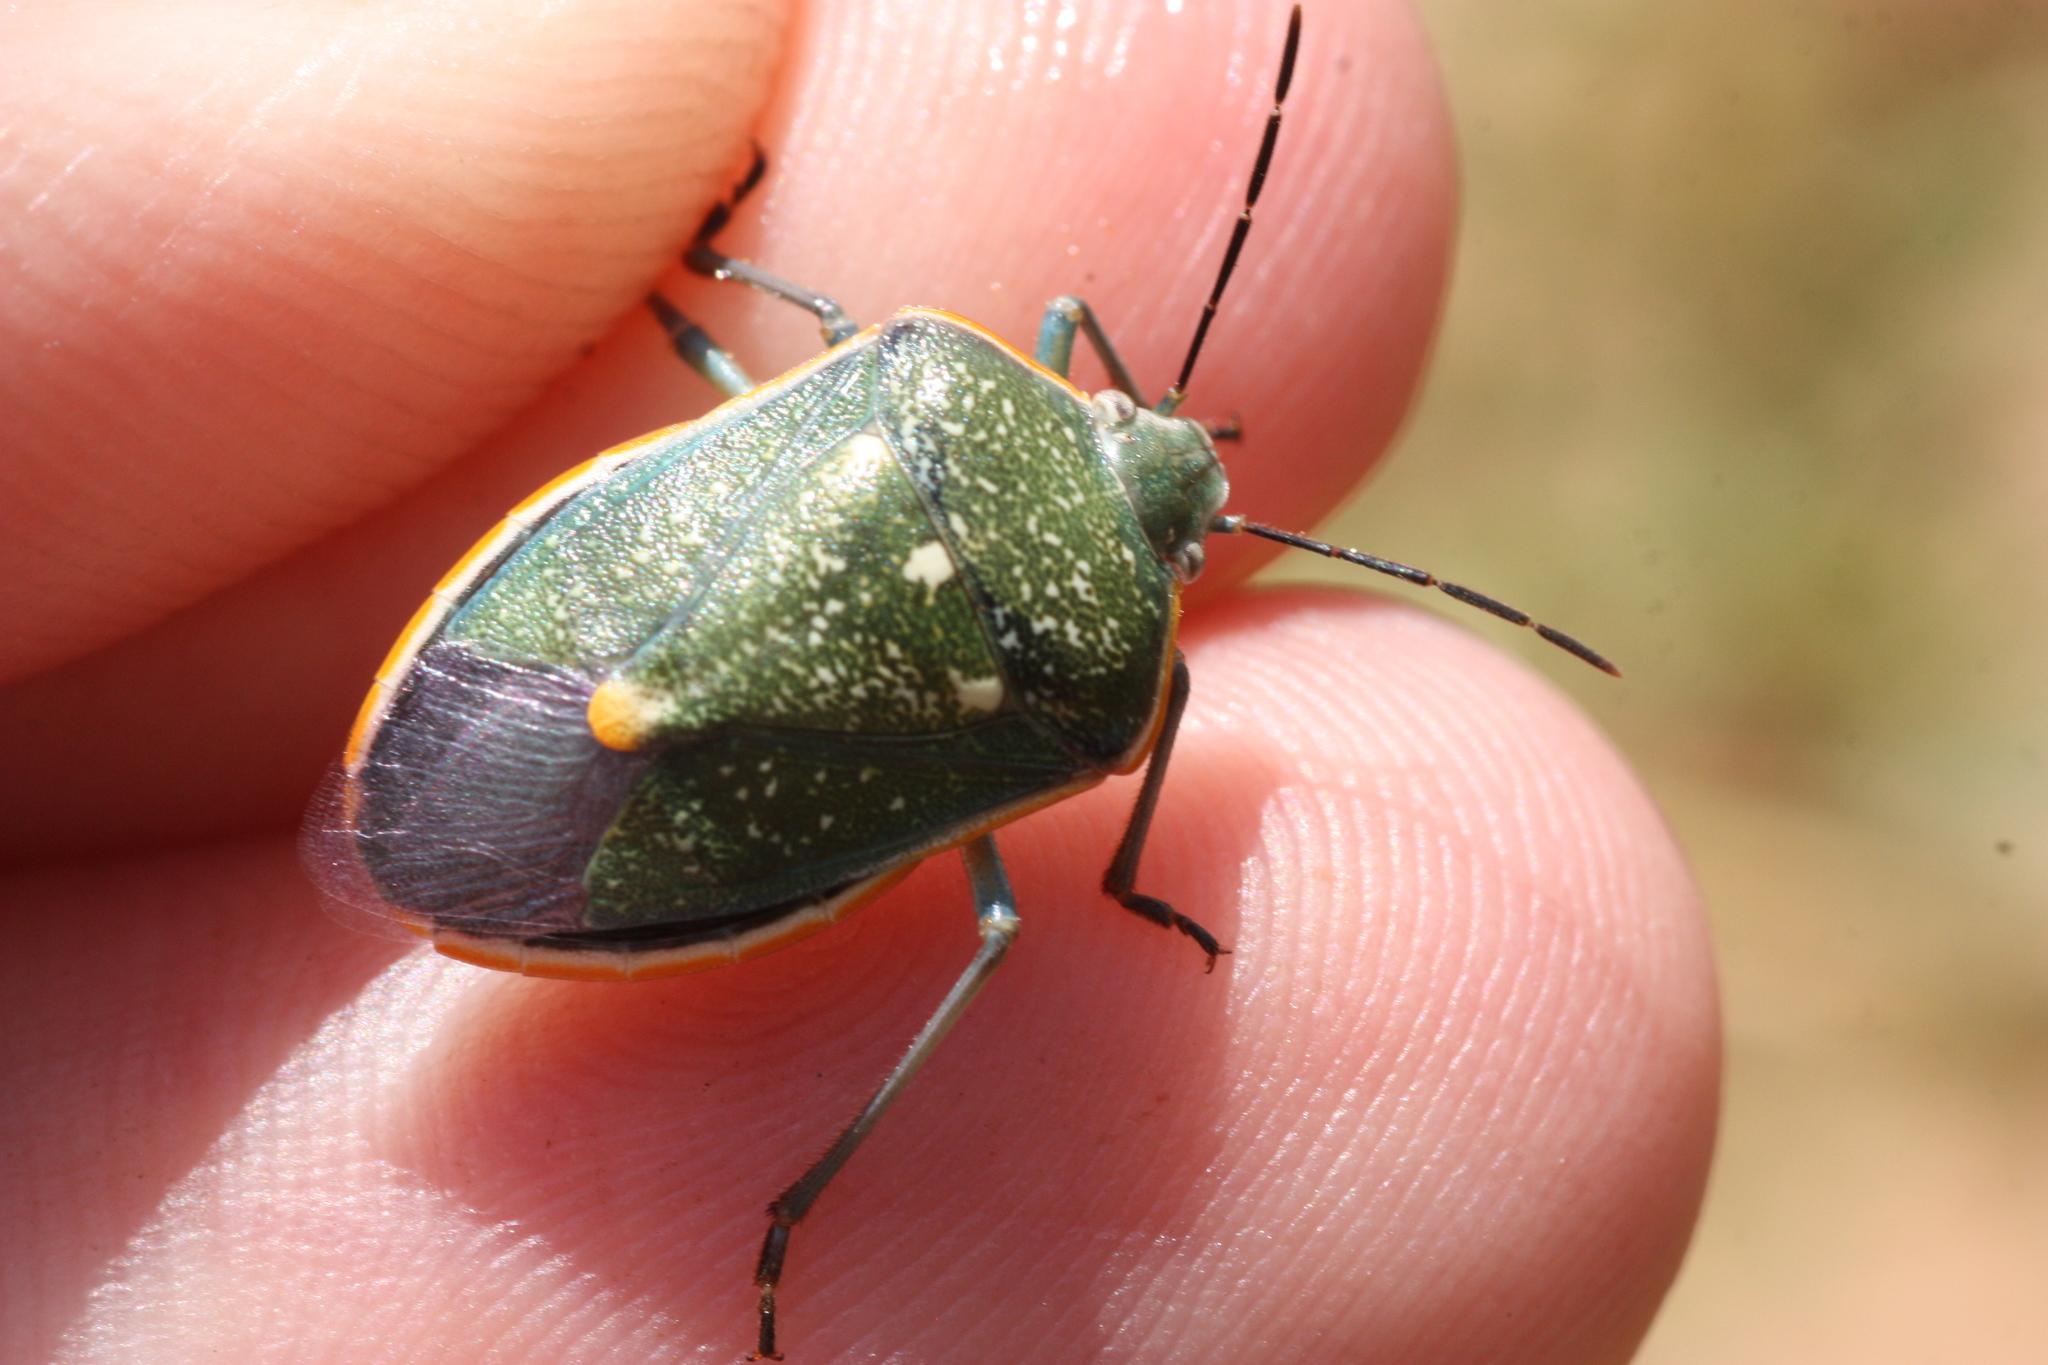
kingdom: Animalia
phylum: Arthropoda
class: Insecta
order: Hemiptera
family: Pentatomidae
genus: Chlorochroa
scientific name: Chlorochroa sayi
